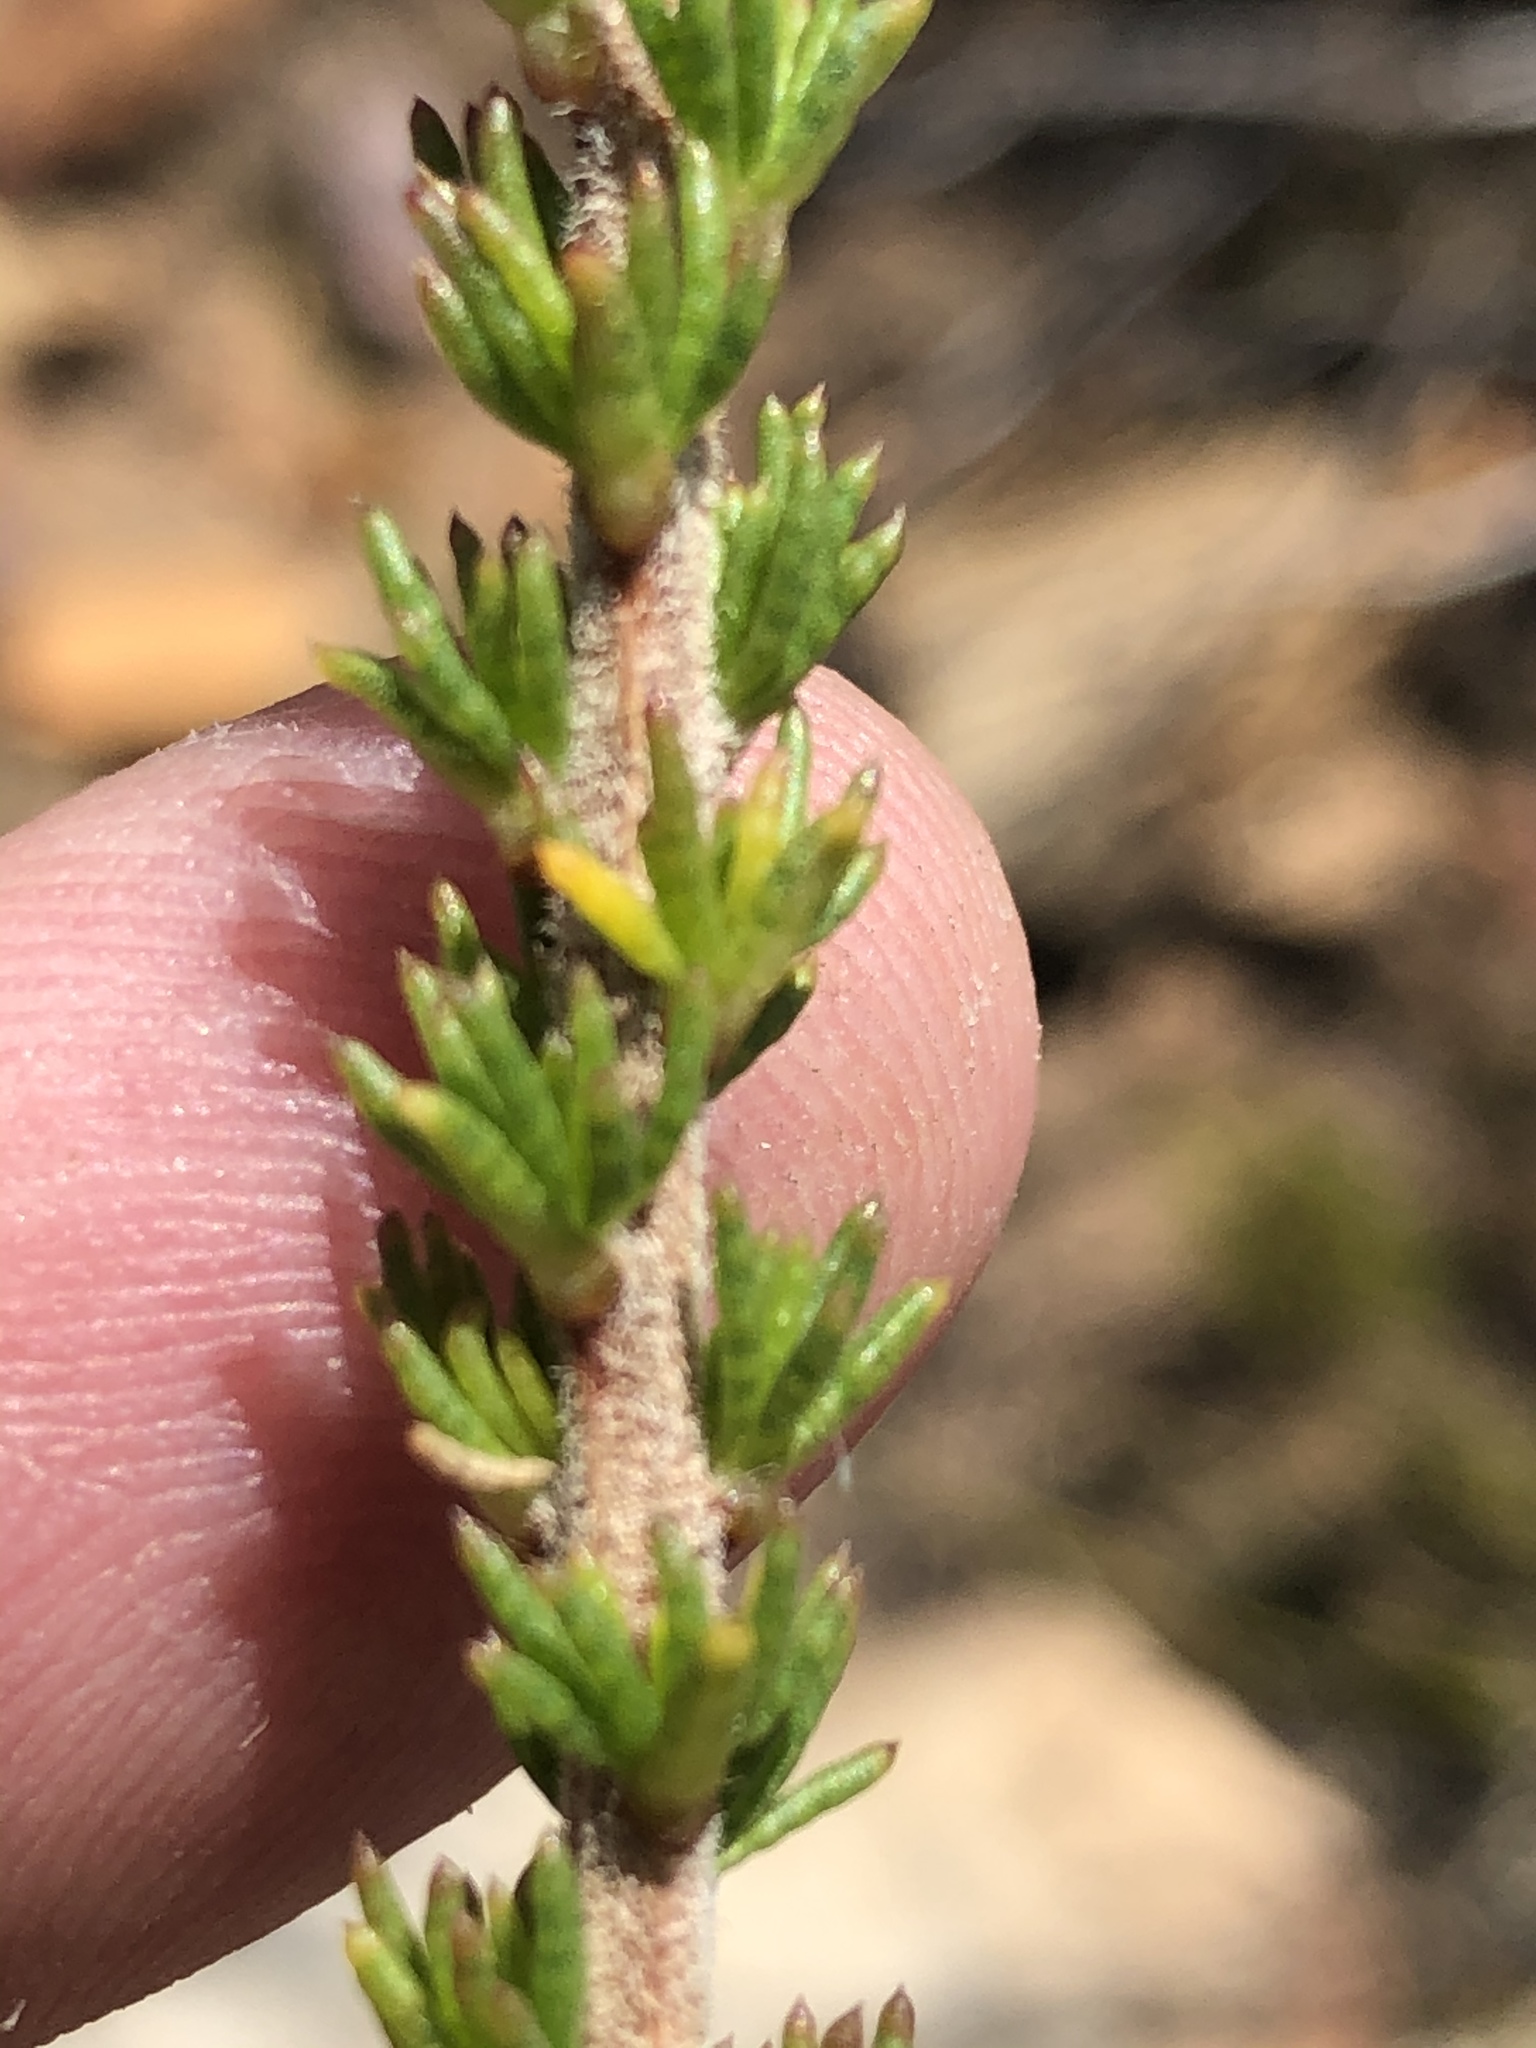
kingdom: Plantae
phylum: Tracheophyta
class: Magnoliopsida
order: Asterales
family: Asteraceae
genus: Pteronia
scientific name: Pteronia camphorata
